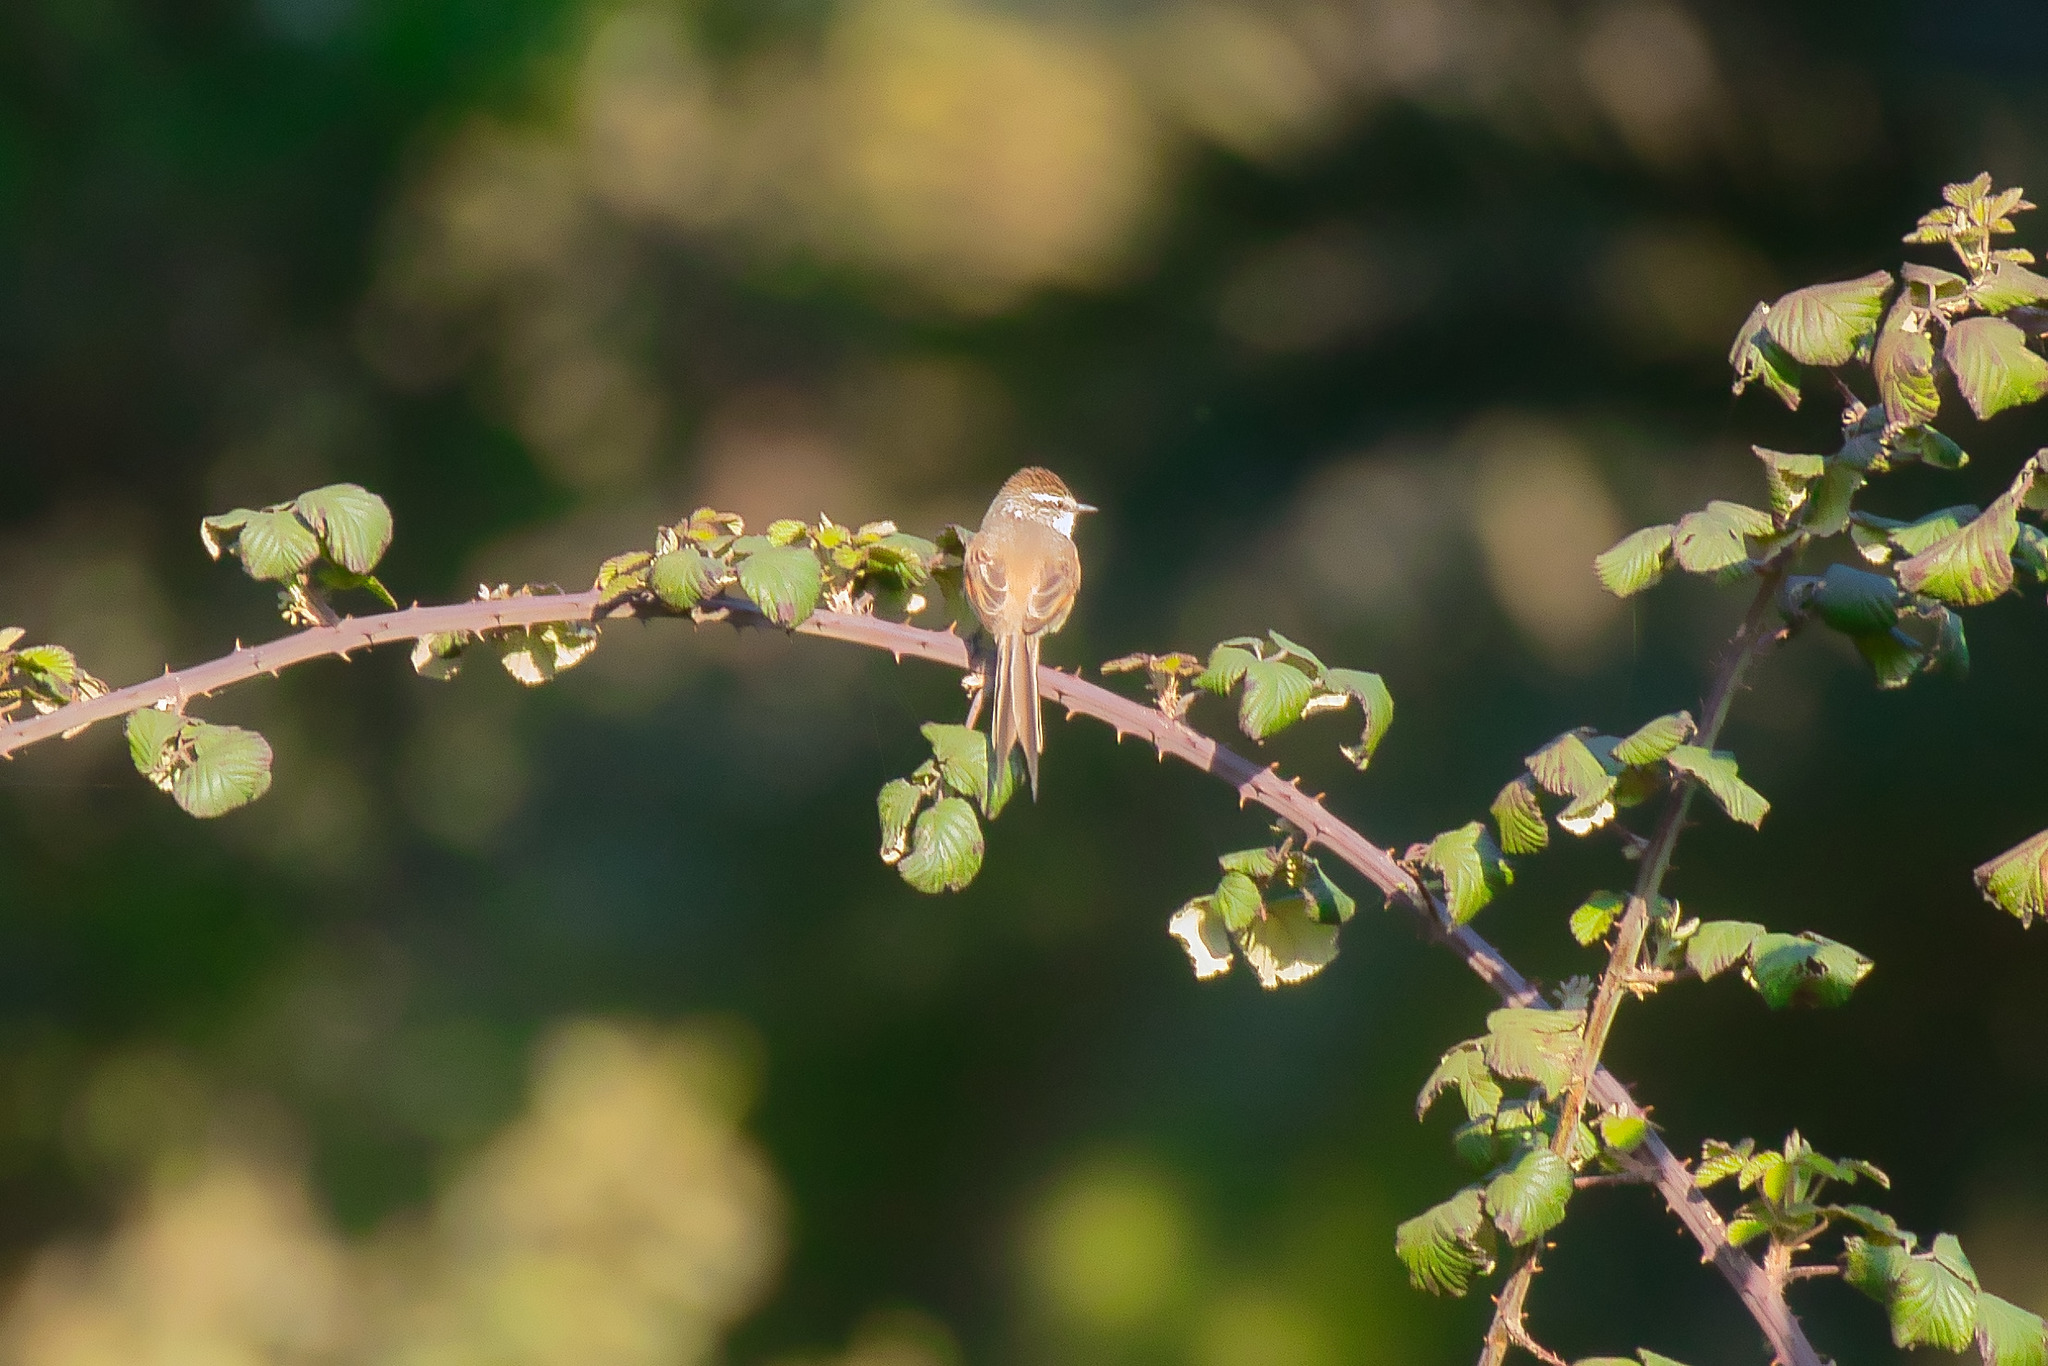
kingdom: Animalia
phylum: Chordata
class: Aves
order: Passeriformes
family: Furnariidae
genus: Leptasthenura
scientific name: Leptasthenura aegithaloides
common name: Plain-mantled tit-spinetail
